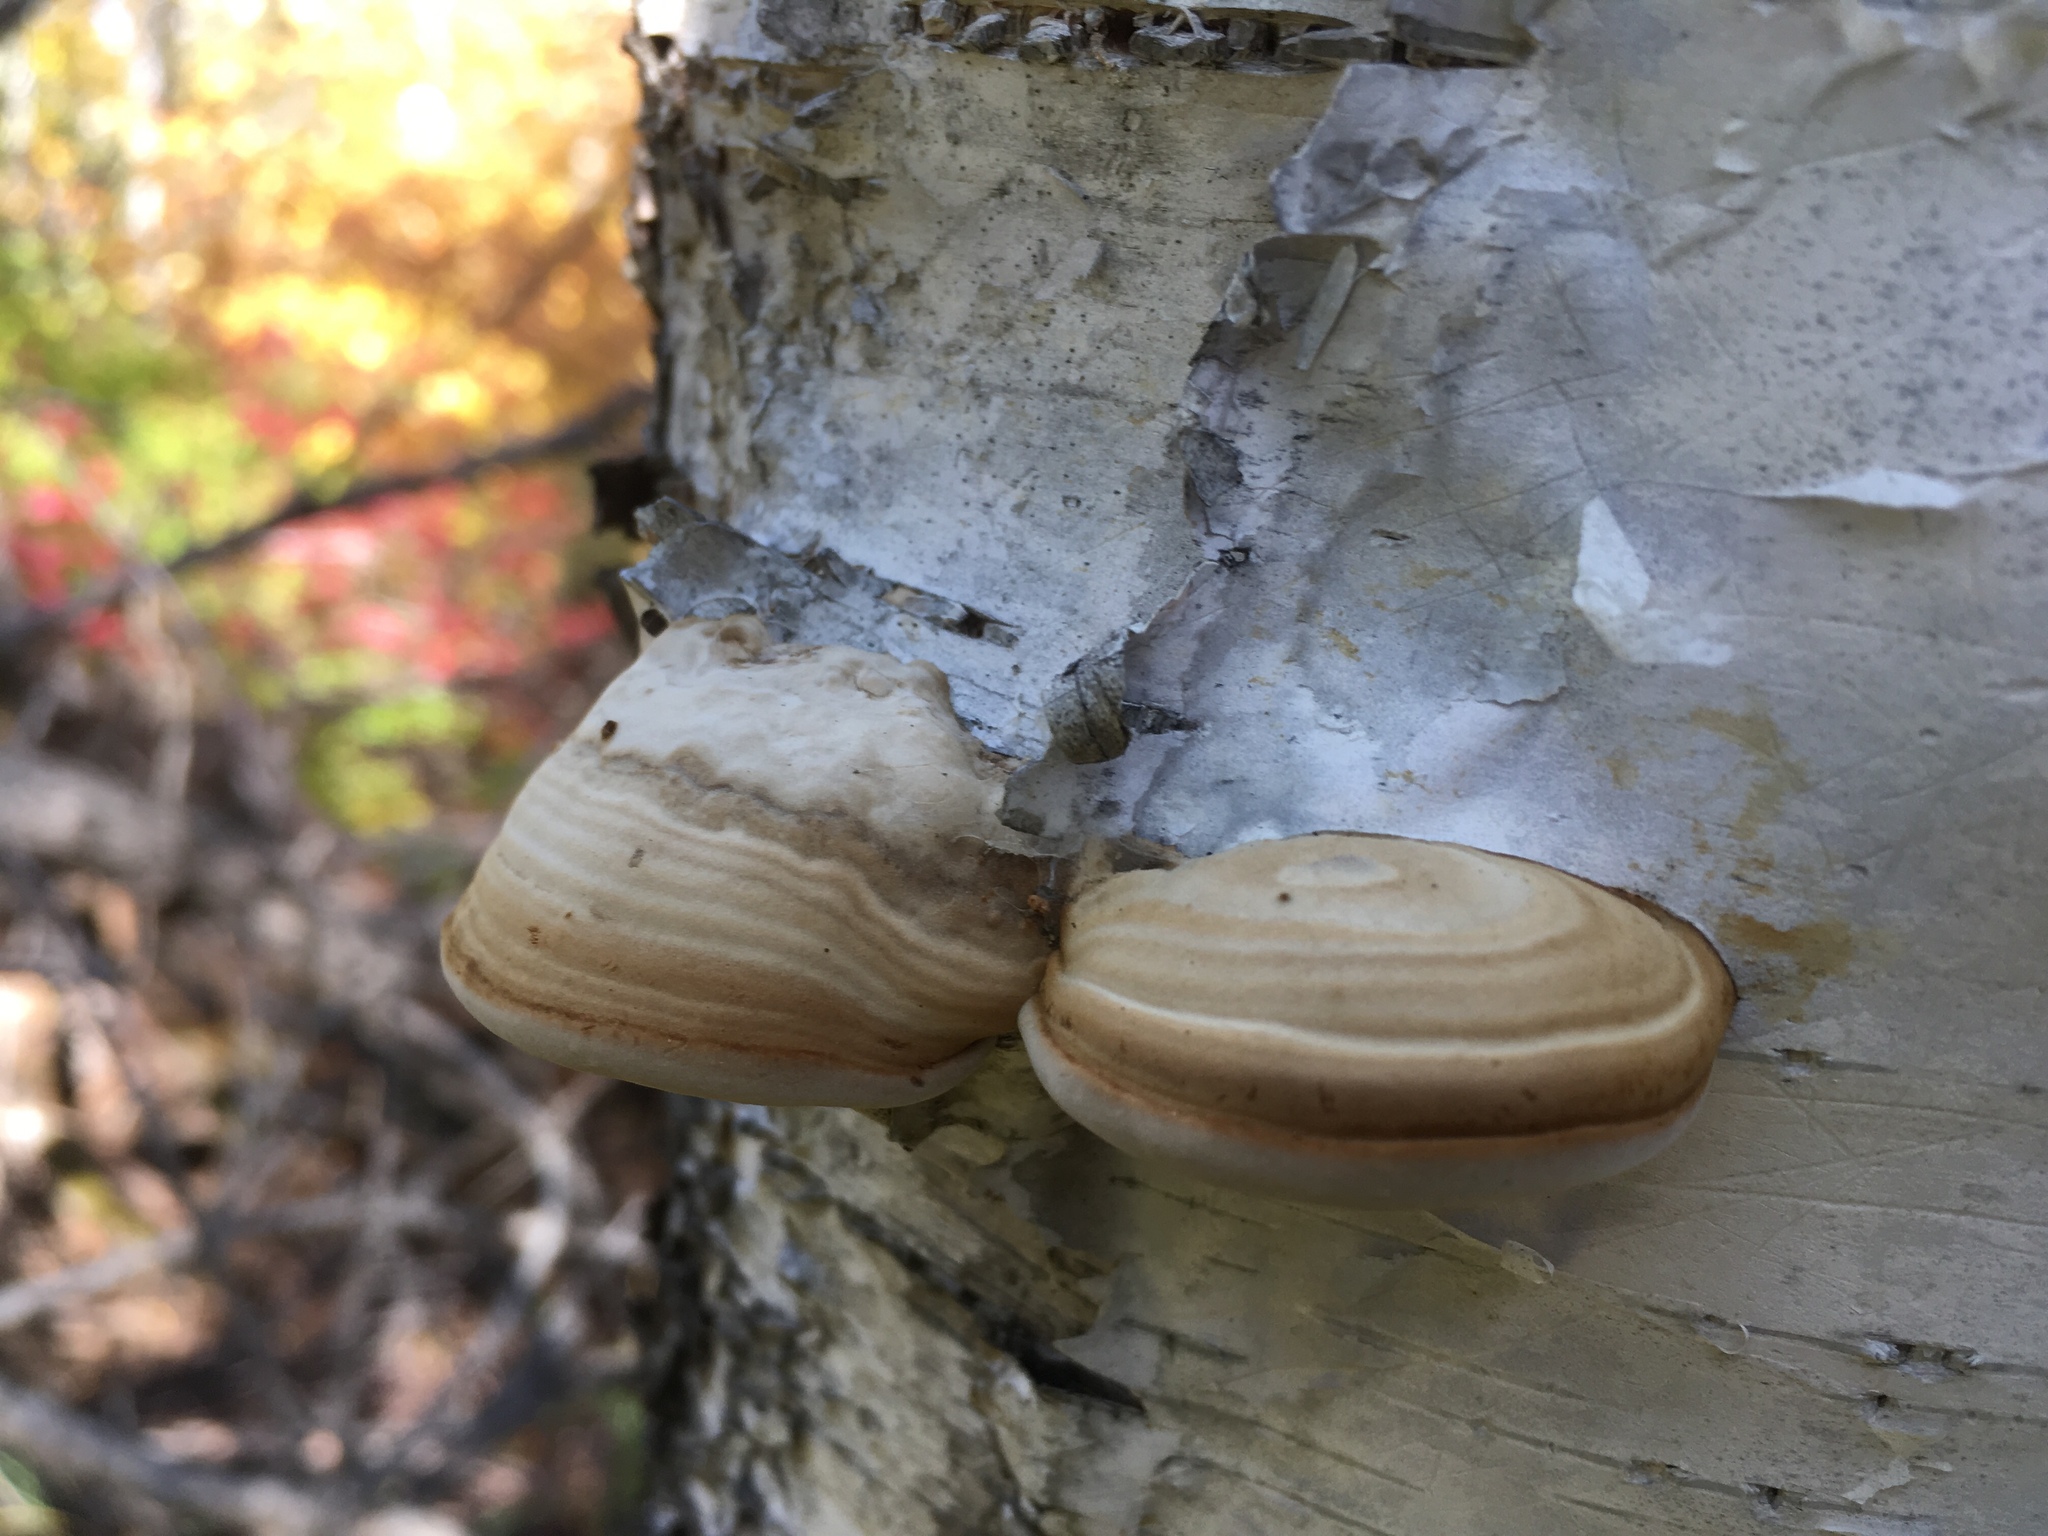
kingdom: Fungi
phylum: Basidiomycota
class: Agaricomycetes
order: Polyporales
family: Polyporaceae
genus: Fomes
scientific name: Fomes fomentarius
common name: Hoof fungus
